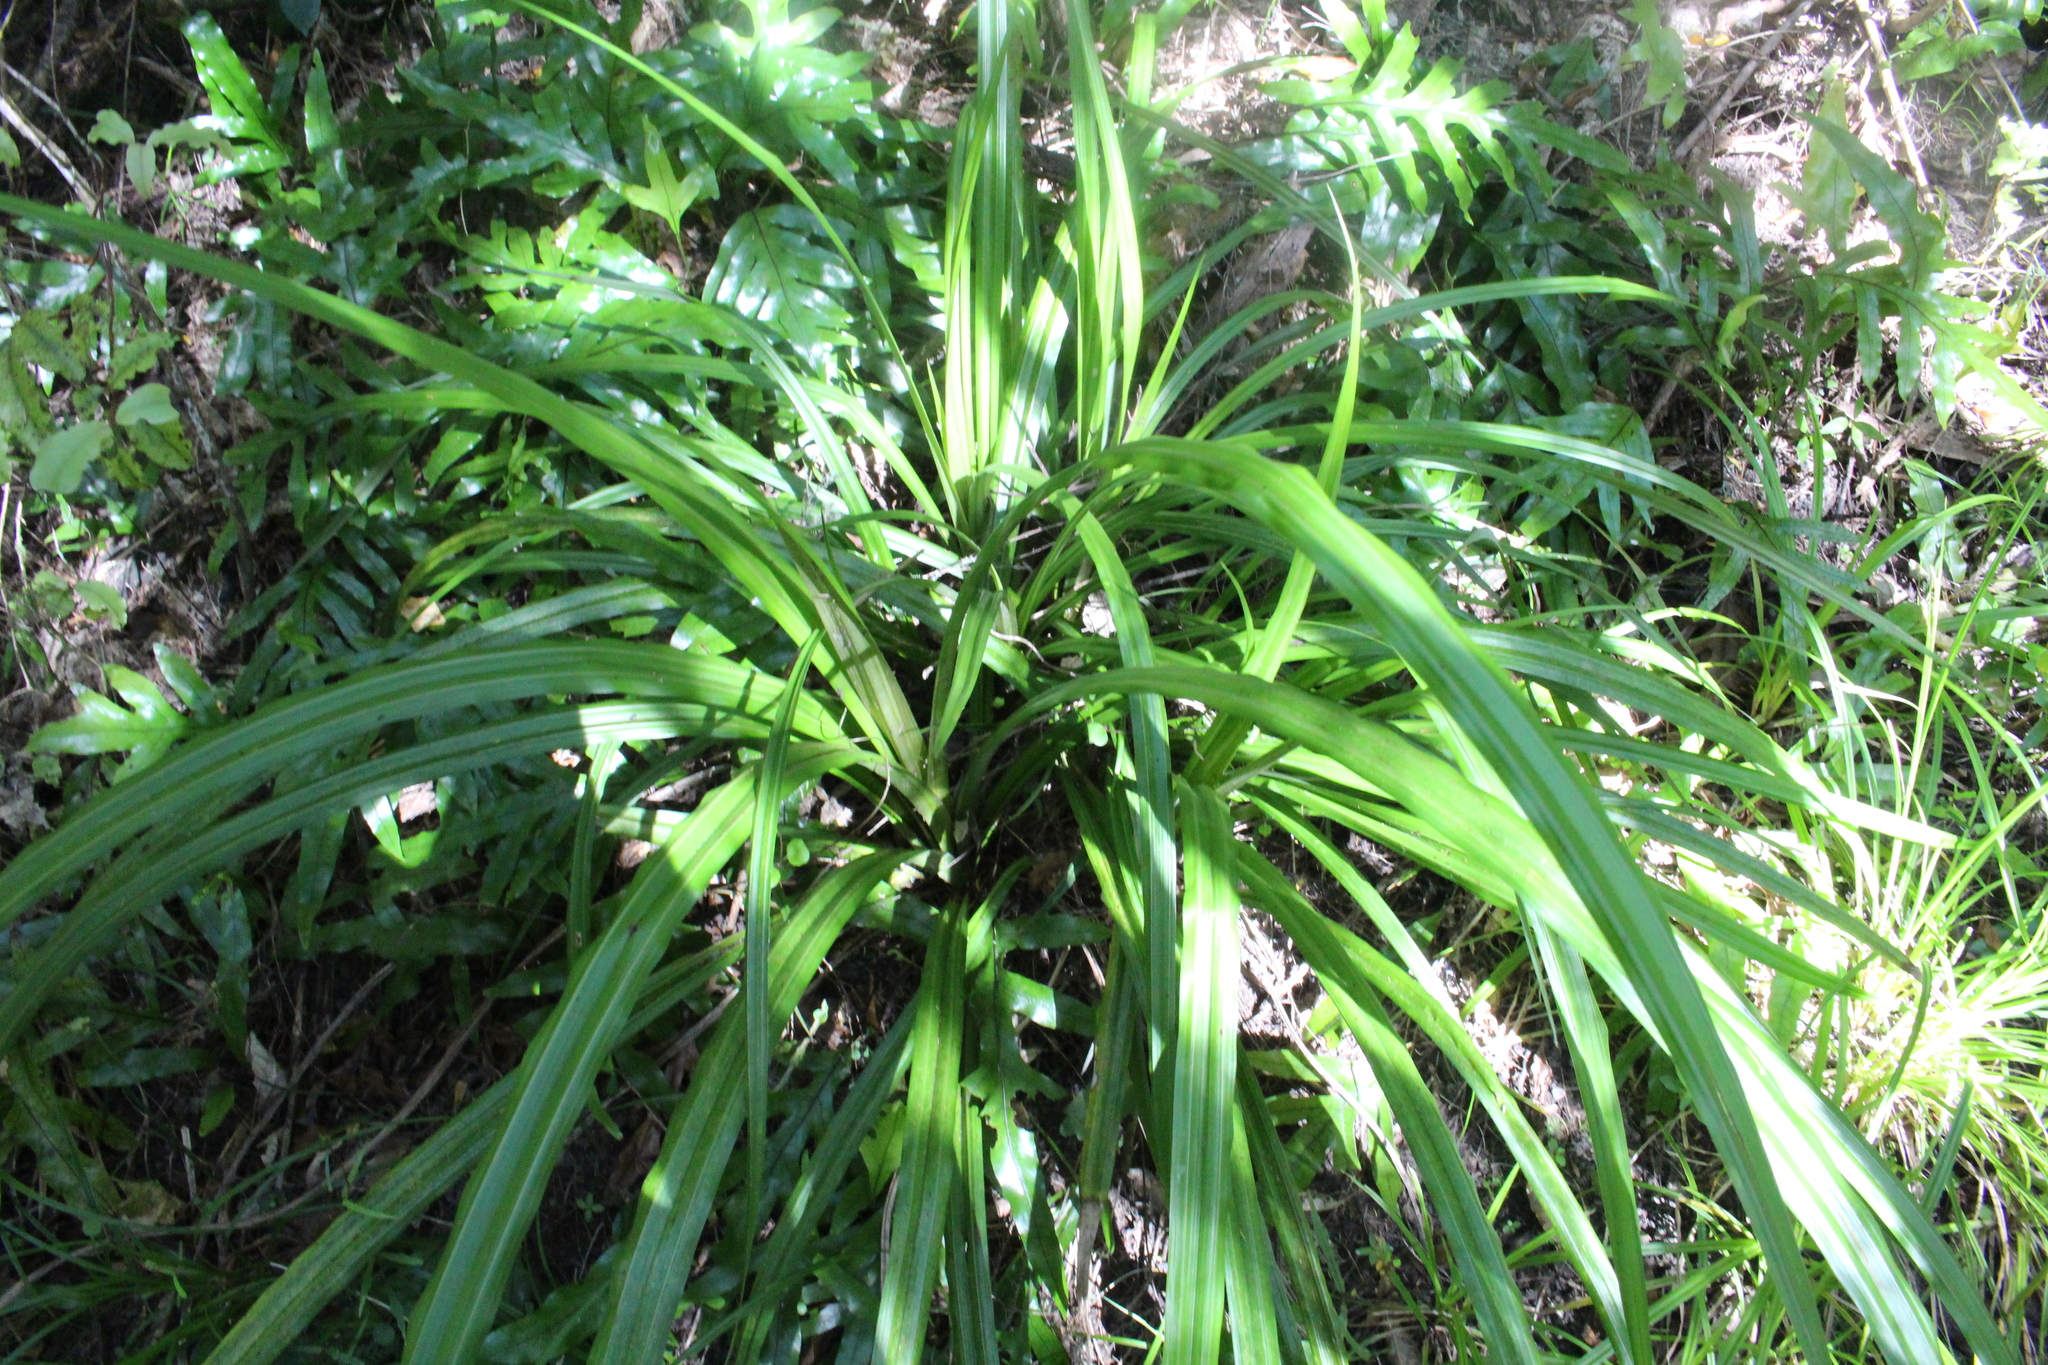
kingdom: Plantae
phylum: Tracheophyta
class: Liliopsida
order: Asparagales
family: Asteliaceae
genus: Astelia
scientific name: Astelia fragrans
